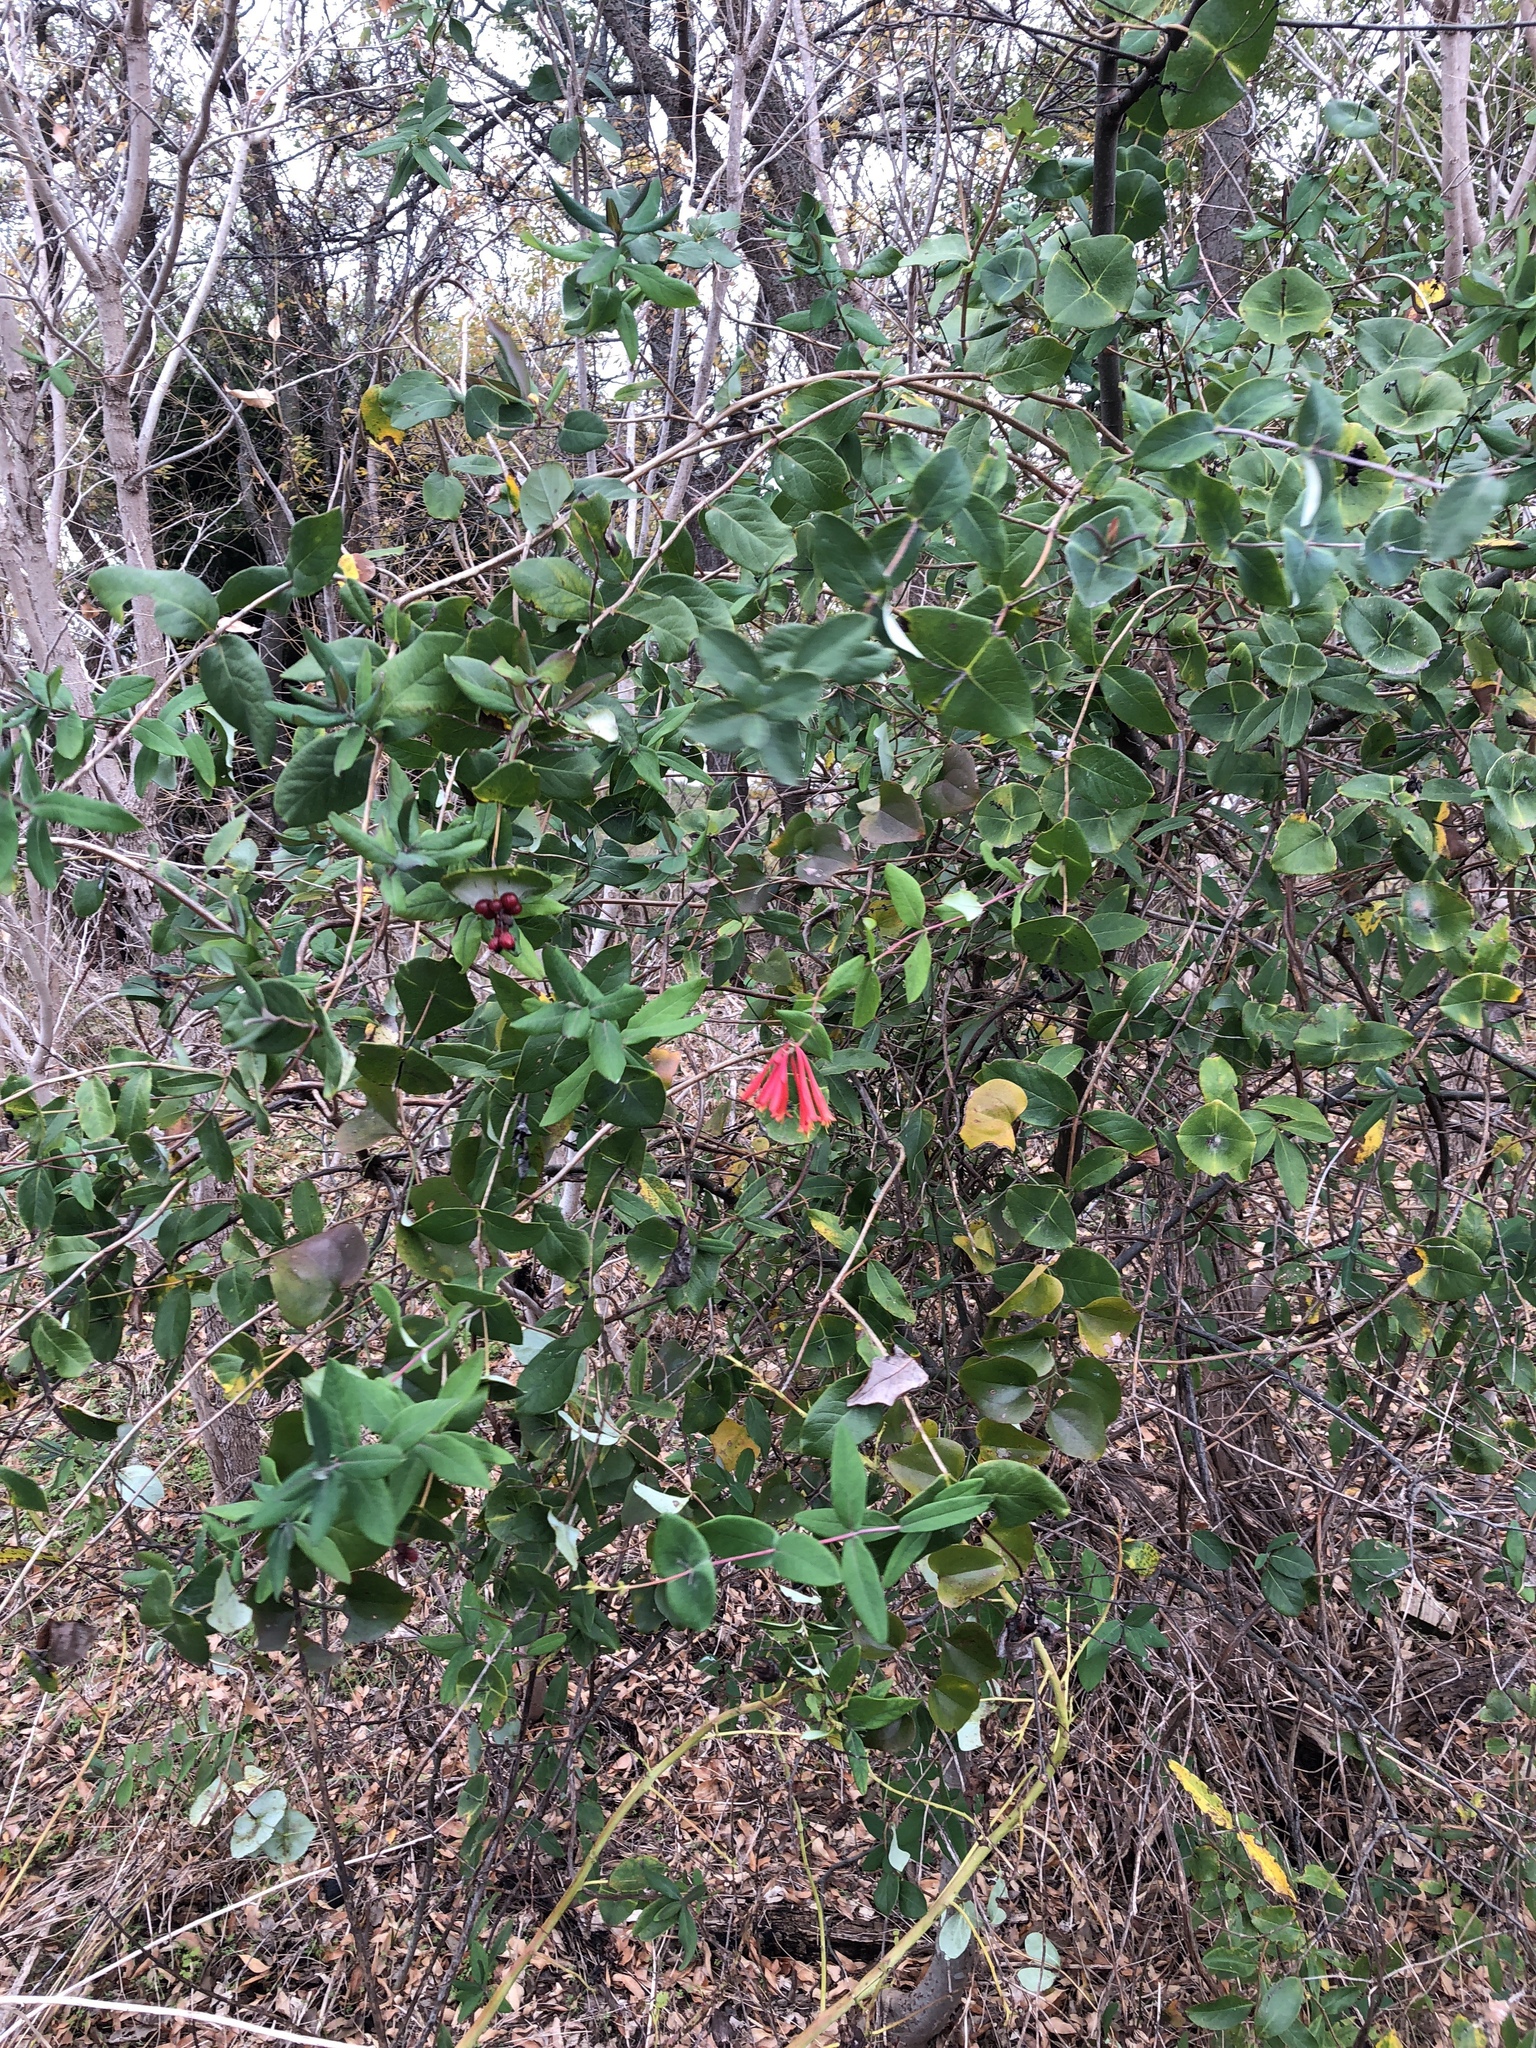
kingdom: Plantae
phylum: Tracheophyta
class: Magnoliopsida
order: Dipsacales
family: Caprifoliaceae
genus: Lonicera
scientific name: Lonicera sempervirens
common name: Coral honeysuckle
